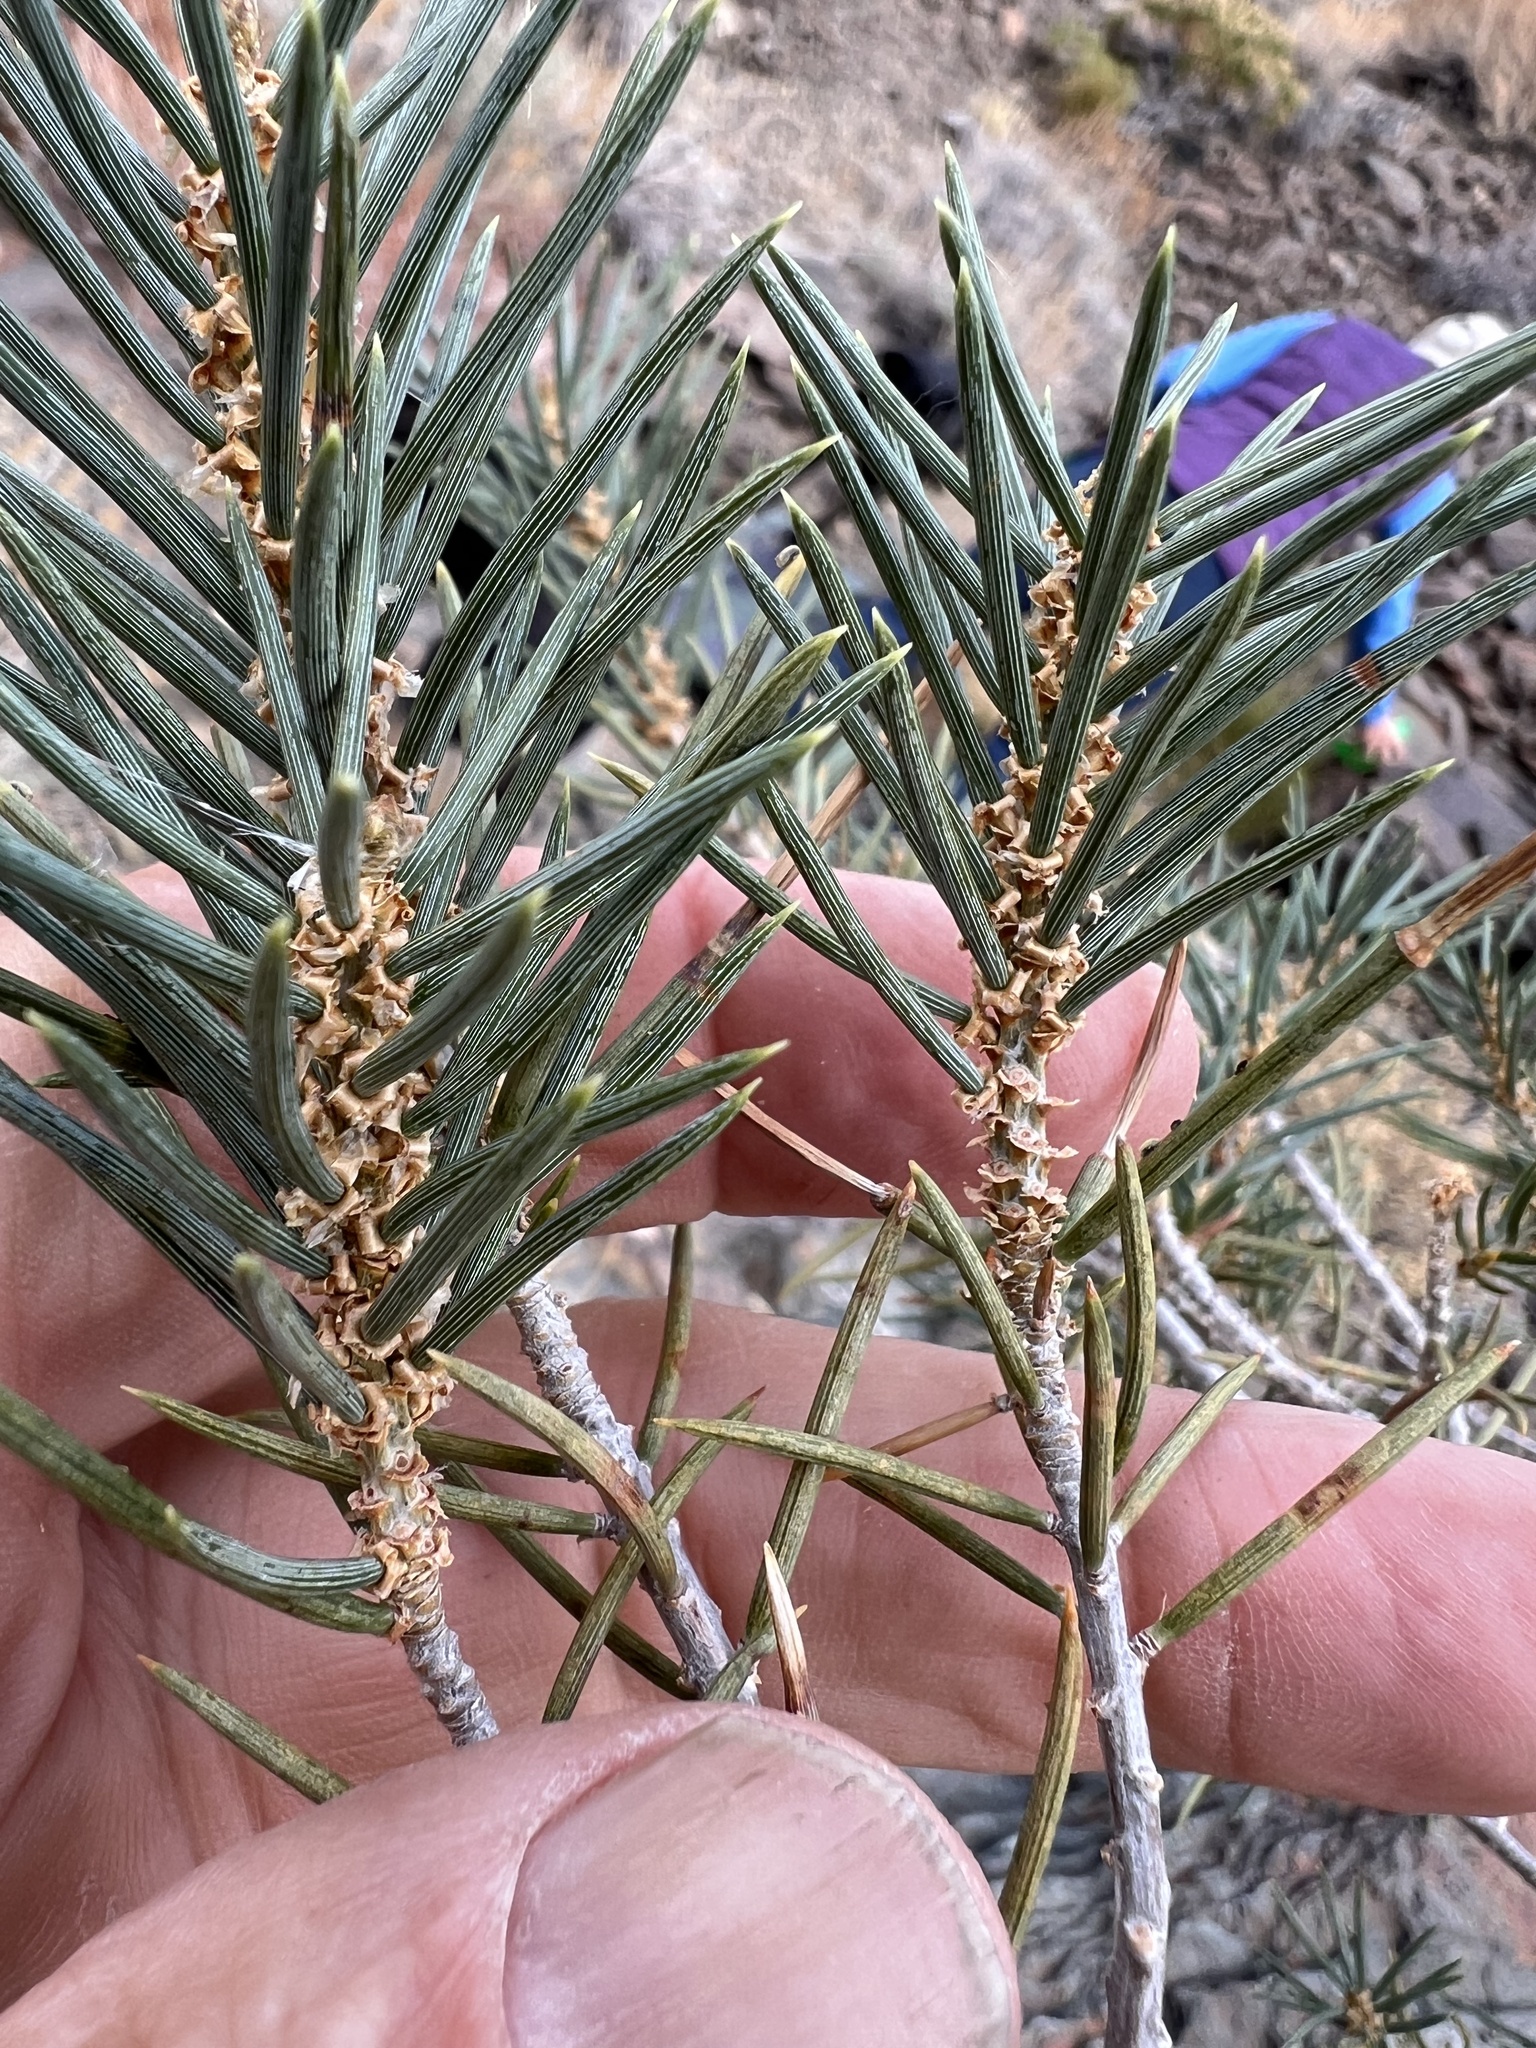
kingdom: Plantae
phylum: Tracheophyta
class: Pinopsida
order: Pinales
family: Pinaceae
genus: Pinus
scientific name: Pinus monophylla
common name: One-leaved nut pine
